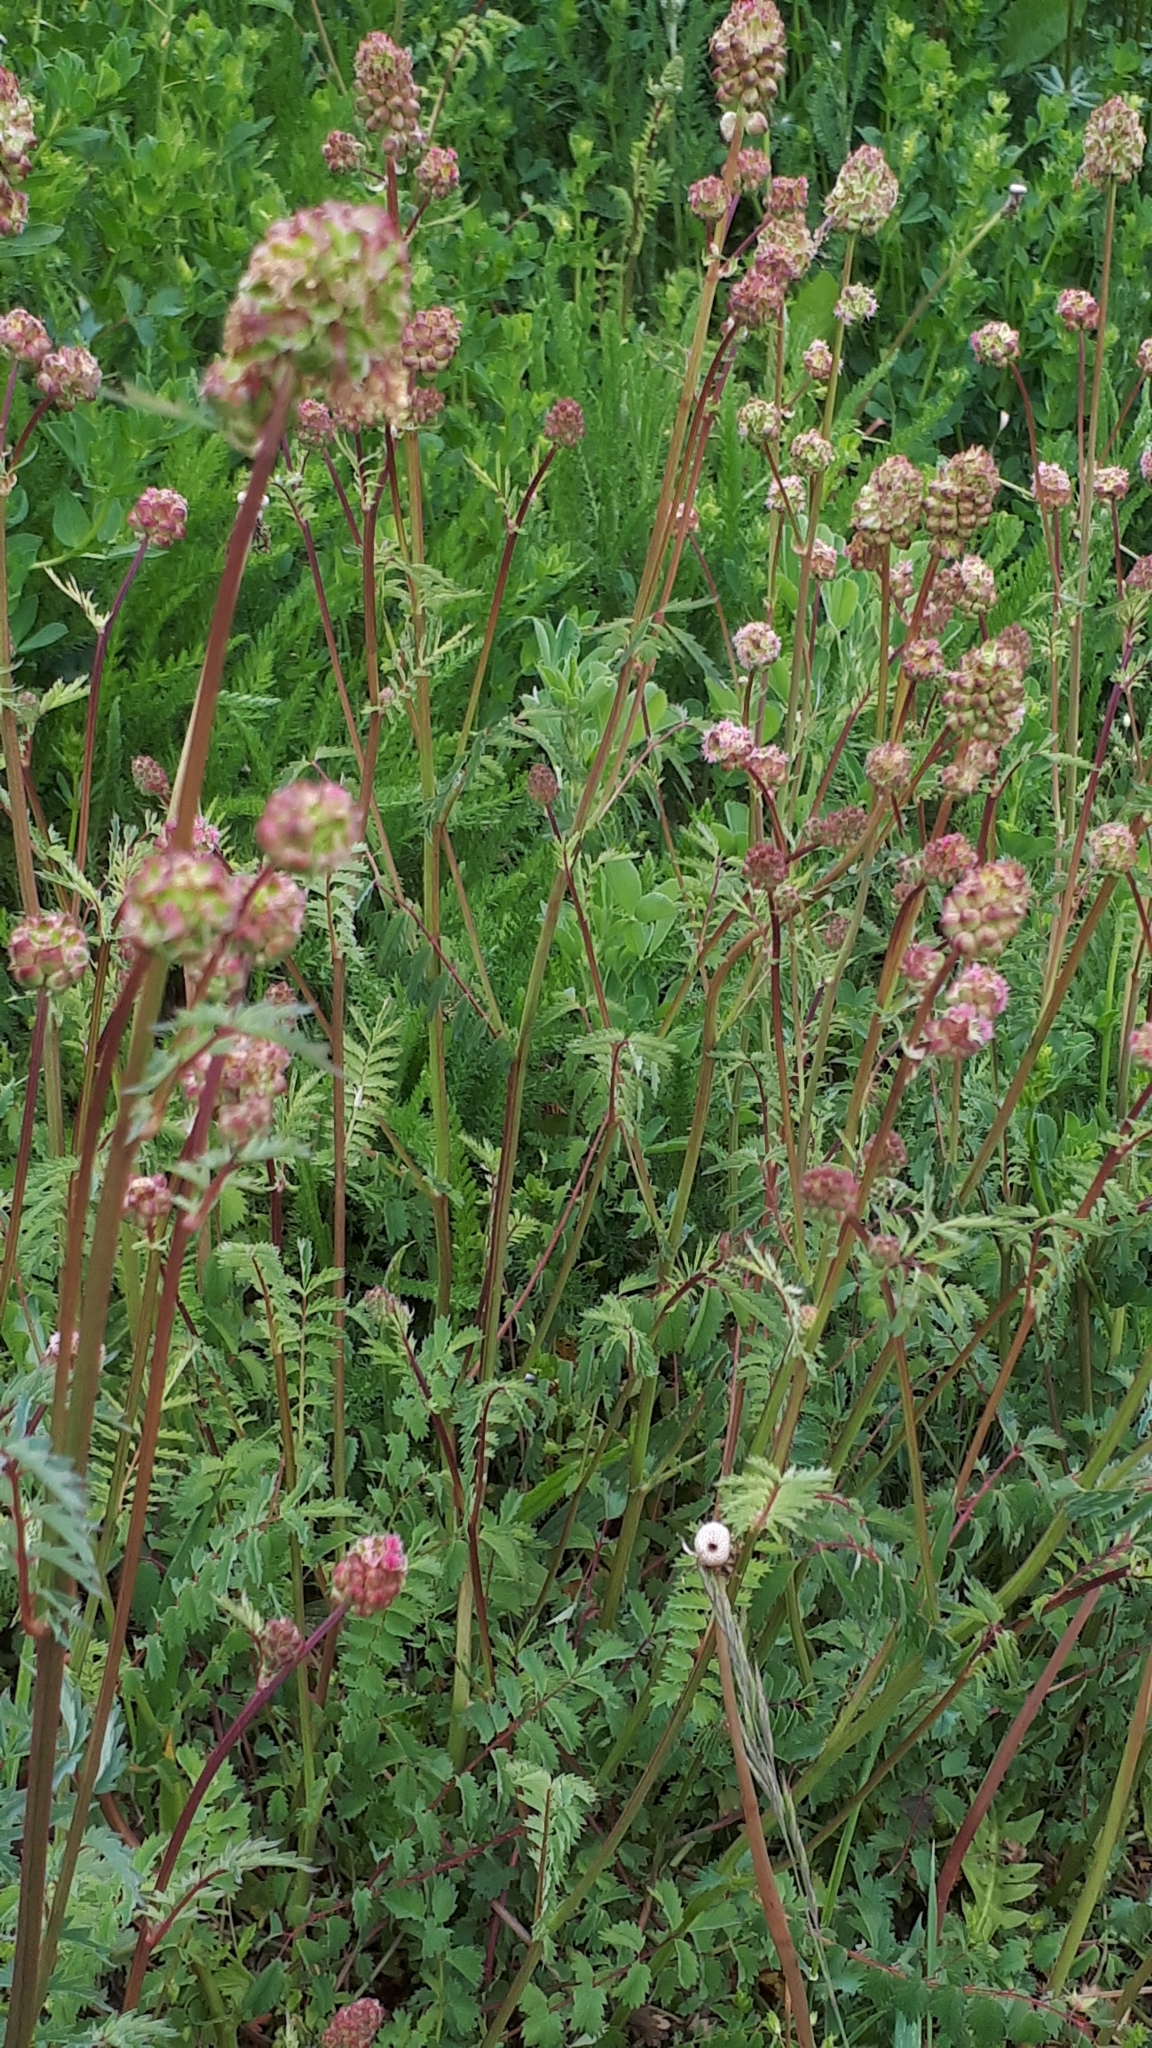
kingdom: Plantae
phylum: Tracheophyta
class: Magnoliopsida
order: Rosales
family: Rosaceae
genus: Poterium
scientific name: Poterium sanguisorba
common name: Salad burnet
